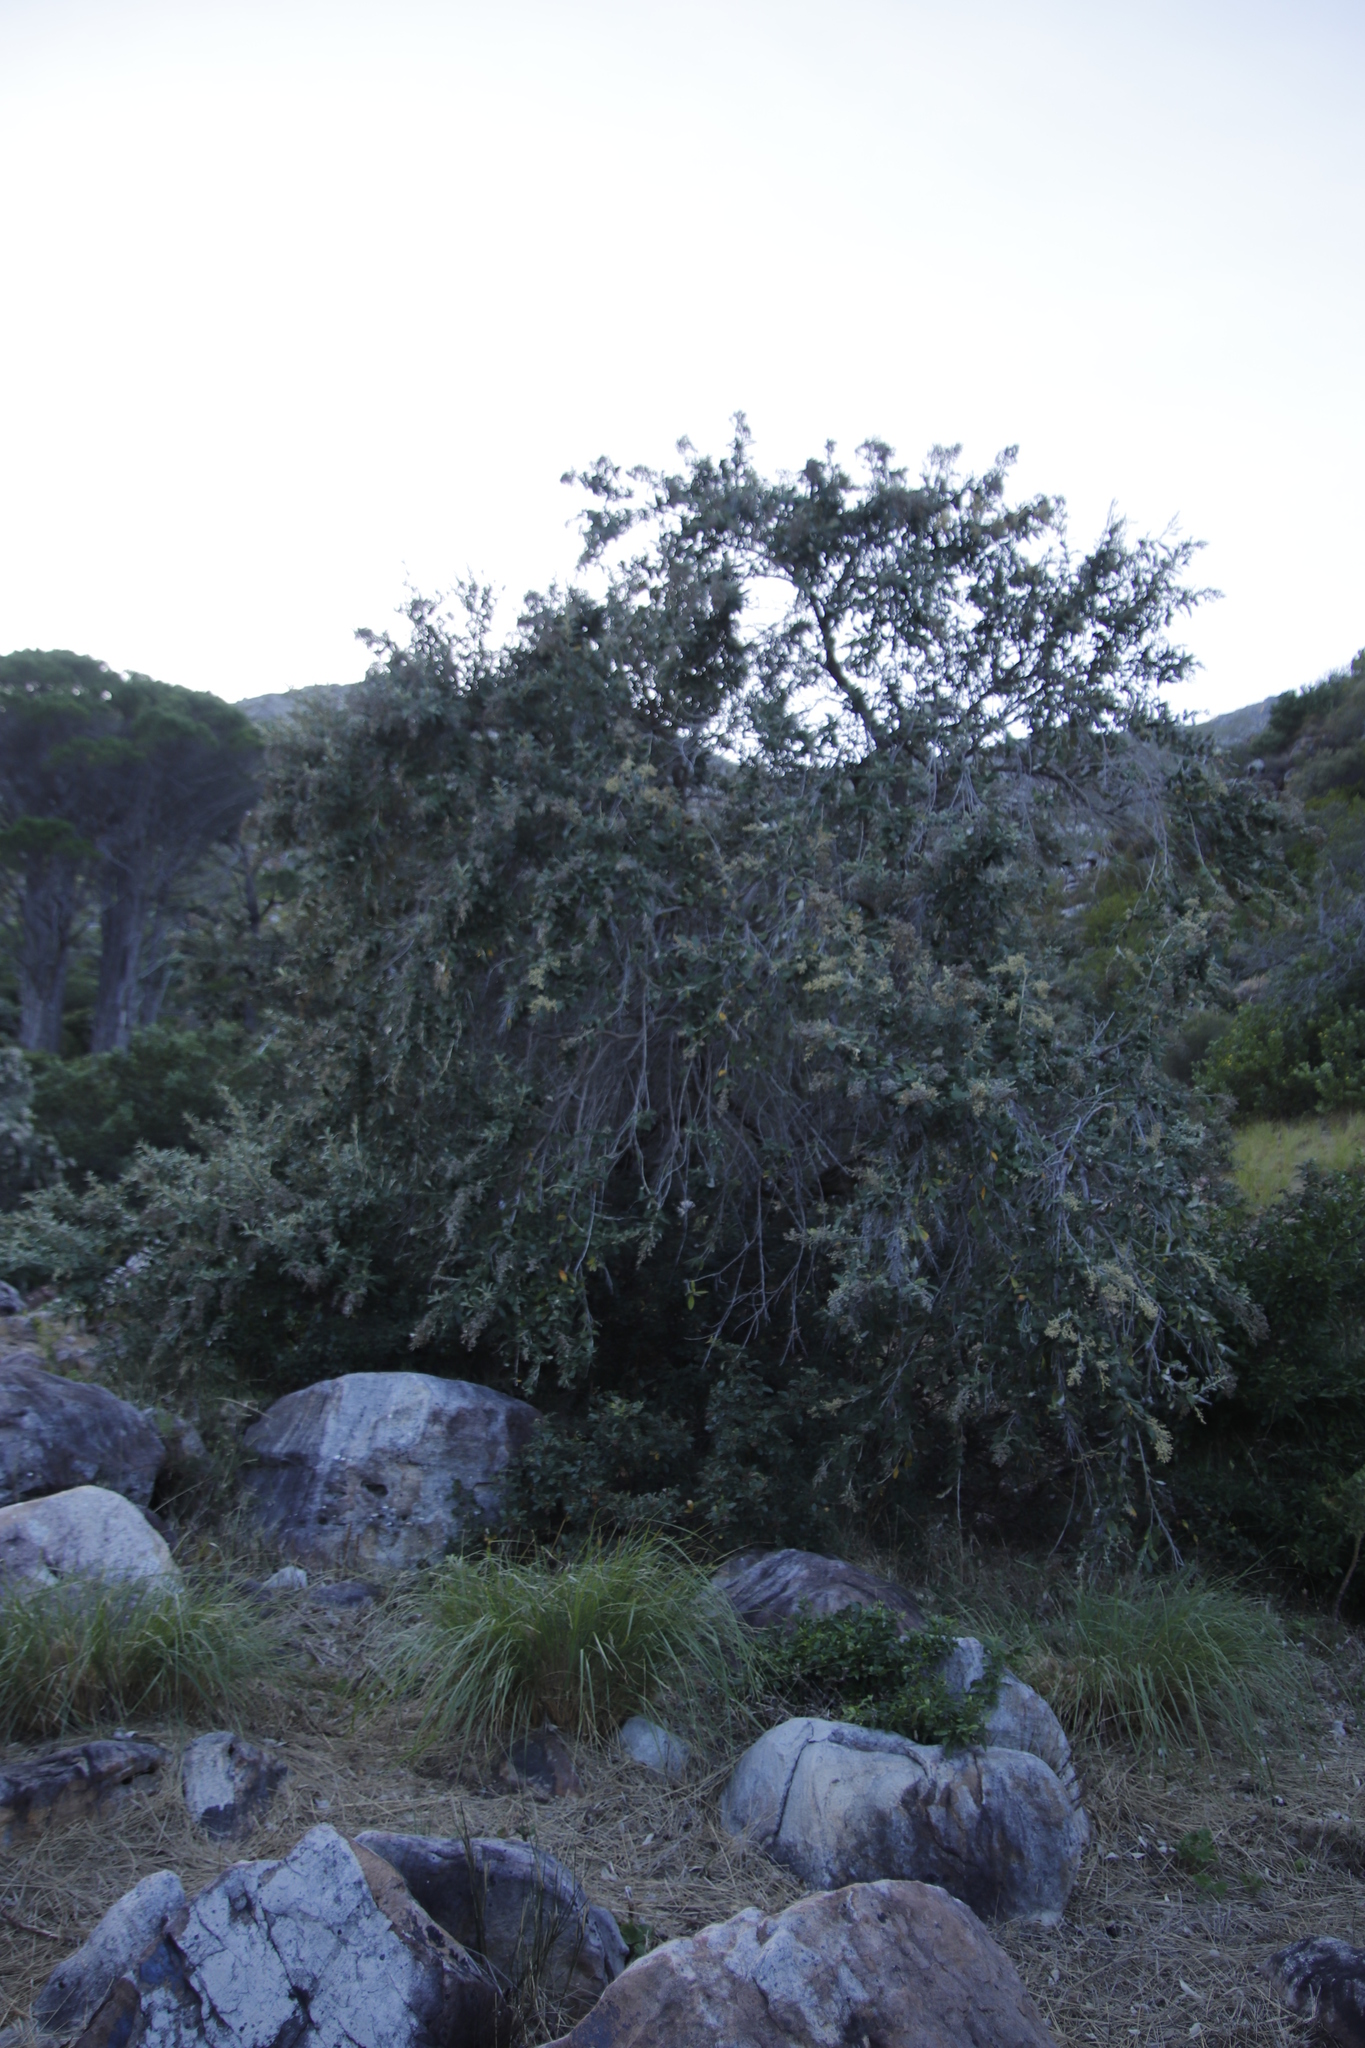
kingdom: Plantae
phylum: Tracheophyta
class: Magnoliopsida
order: Asterales
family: Asteraceae
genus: Tarchonanthus
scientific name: Tarchonanthus littoralis
